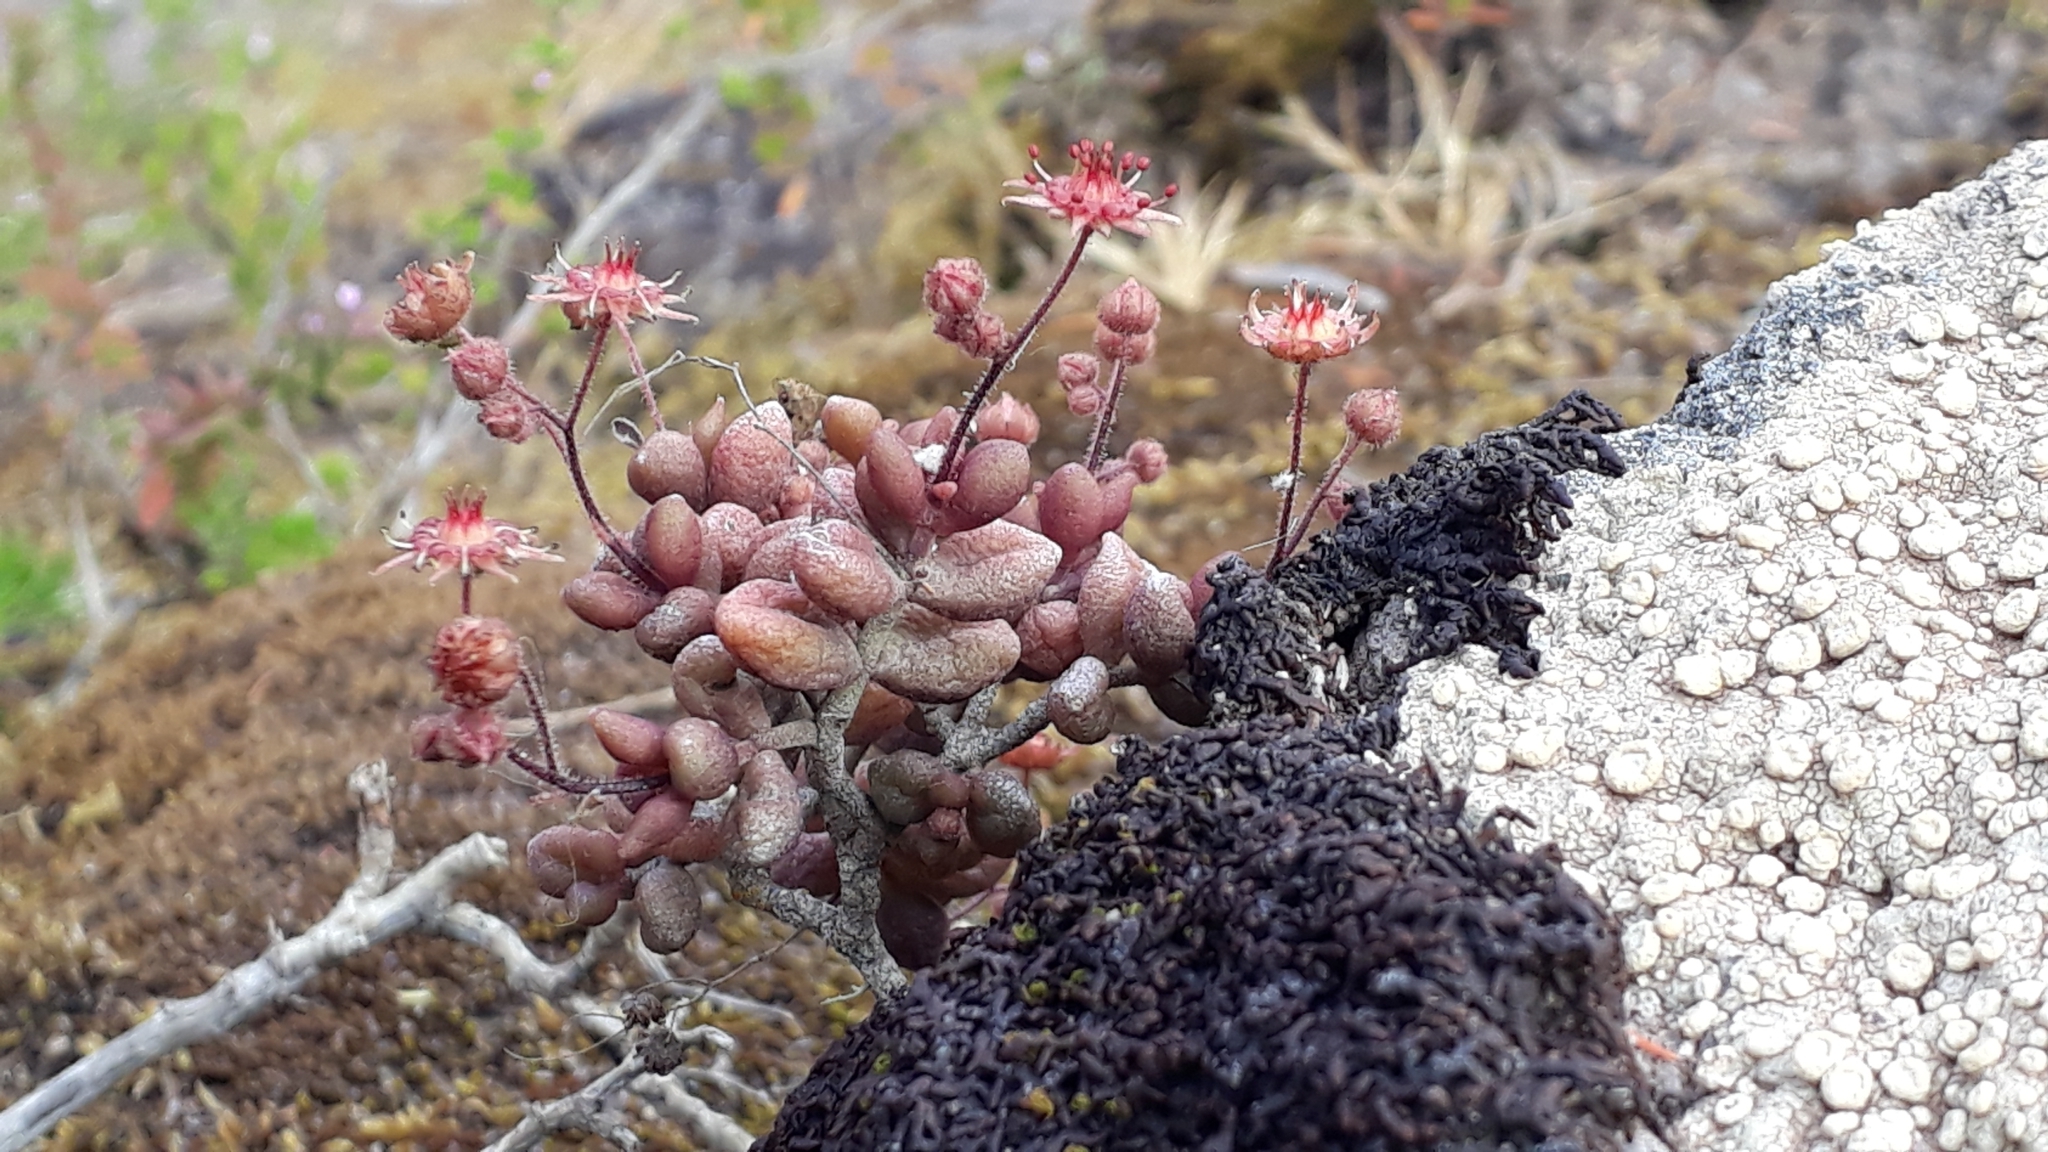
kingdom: Plantae
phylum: Tracheophyta
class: Magnoliopsida
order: Saxifragales
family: Crassulaceae
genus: Monanthes
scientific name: Monanthes laxiflora
